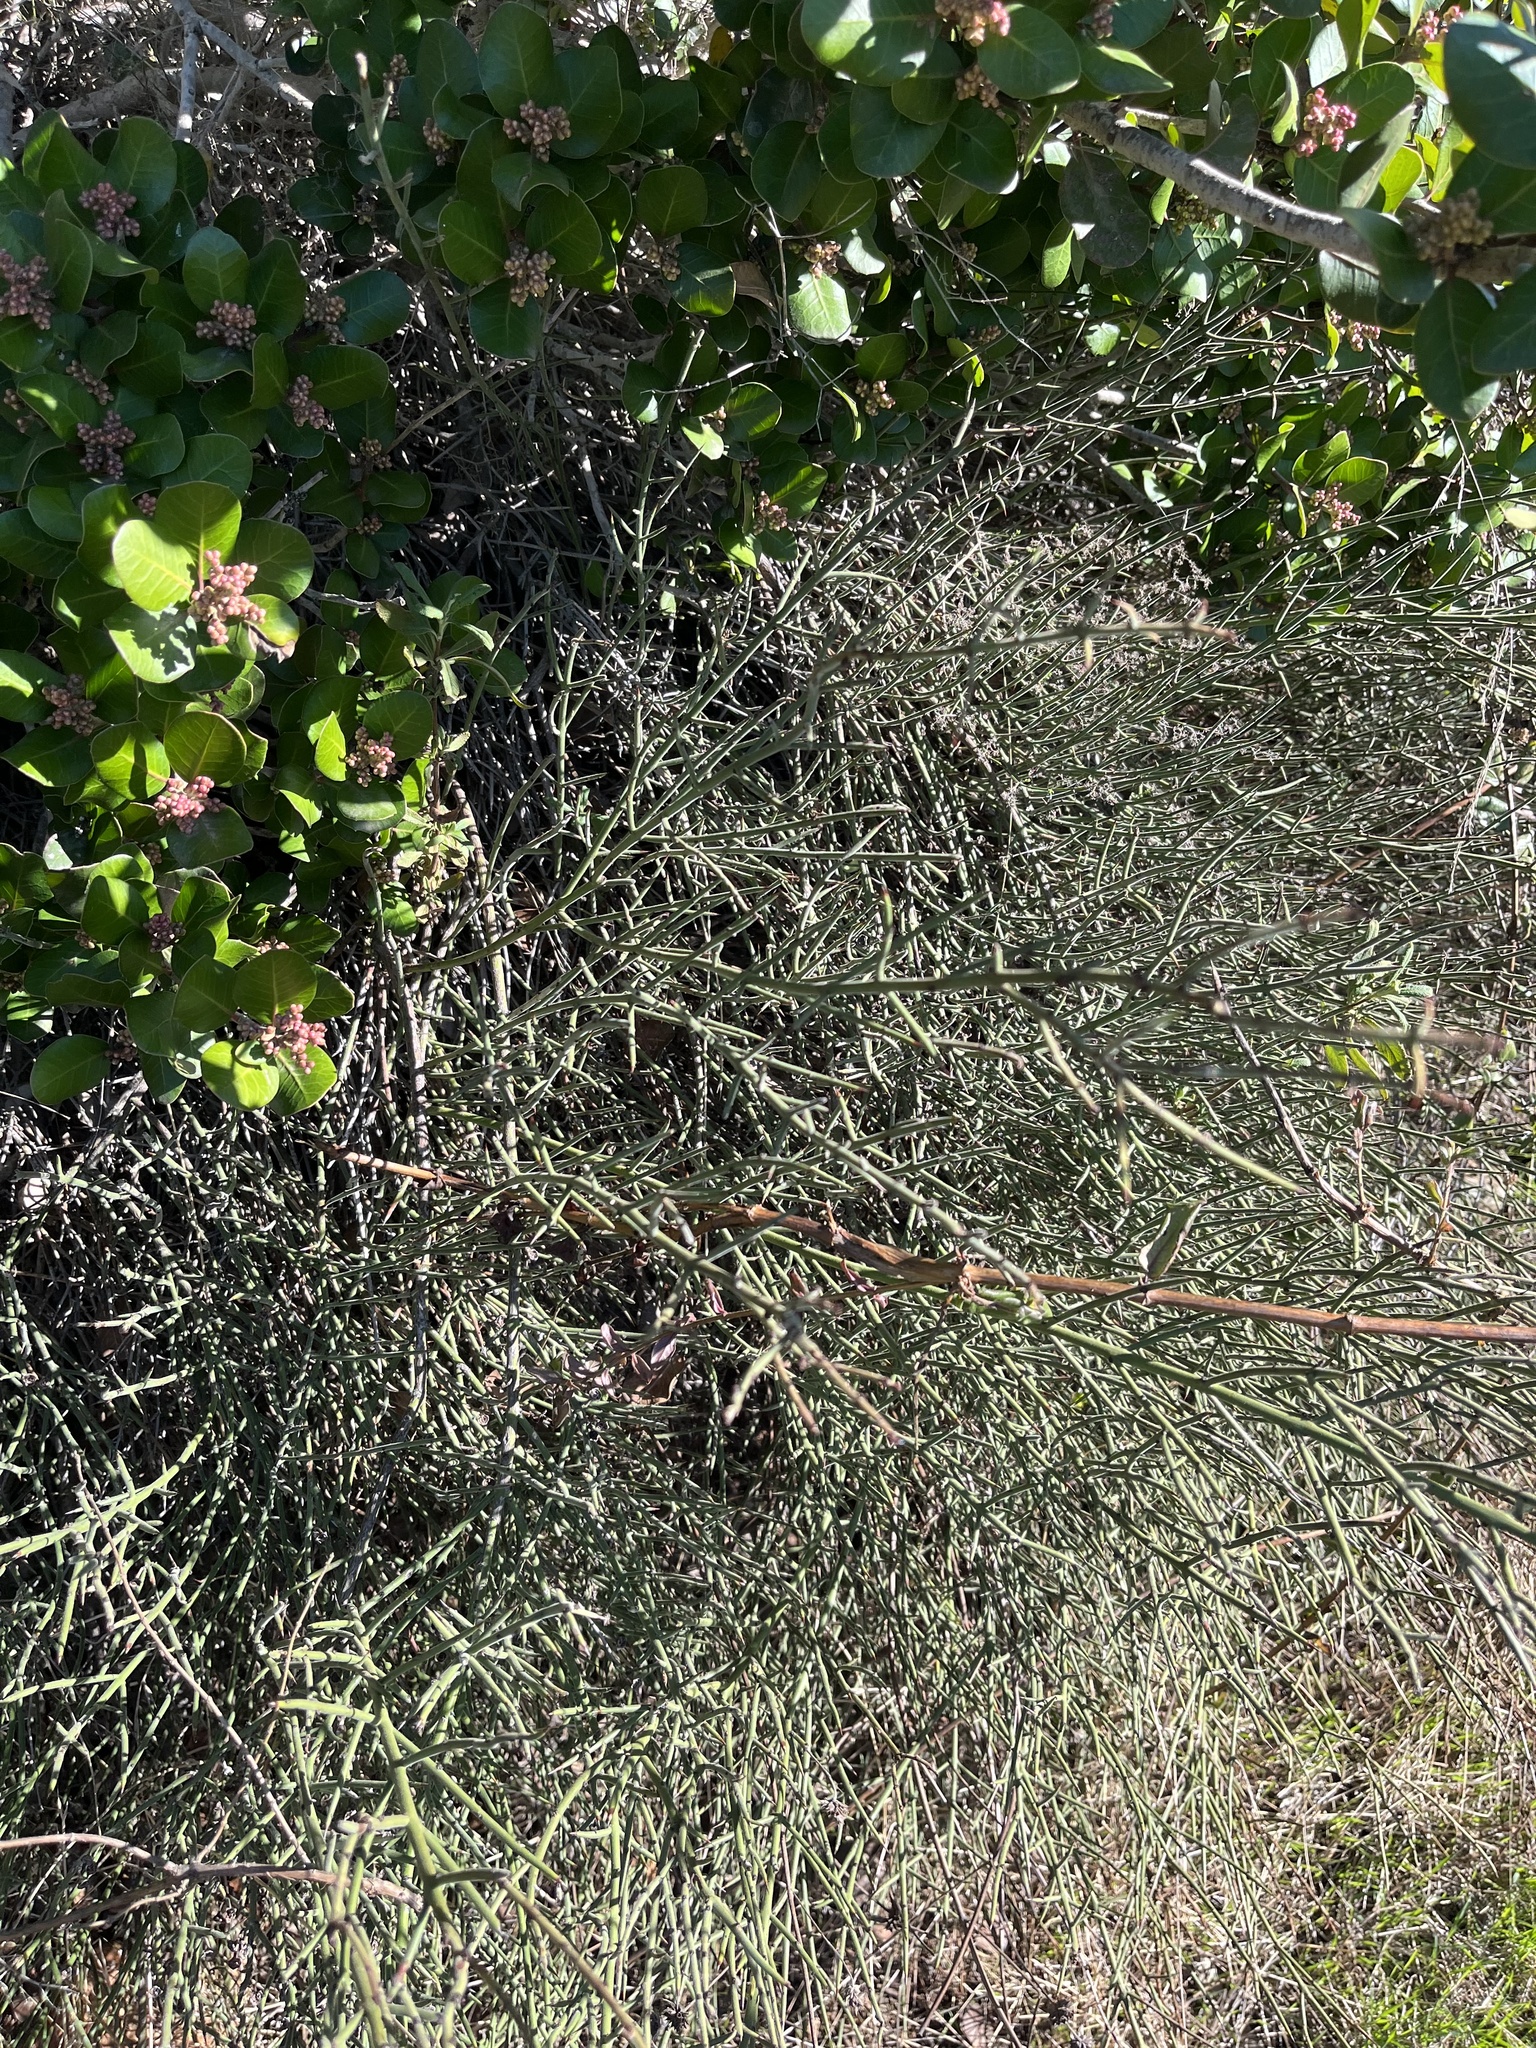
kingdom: Plantae
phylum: Tracheophyta
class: Magnoliopsida
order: Rosales
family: Rhamnaceae
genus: Adolphia
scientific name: Adolphia californica
